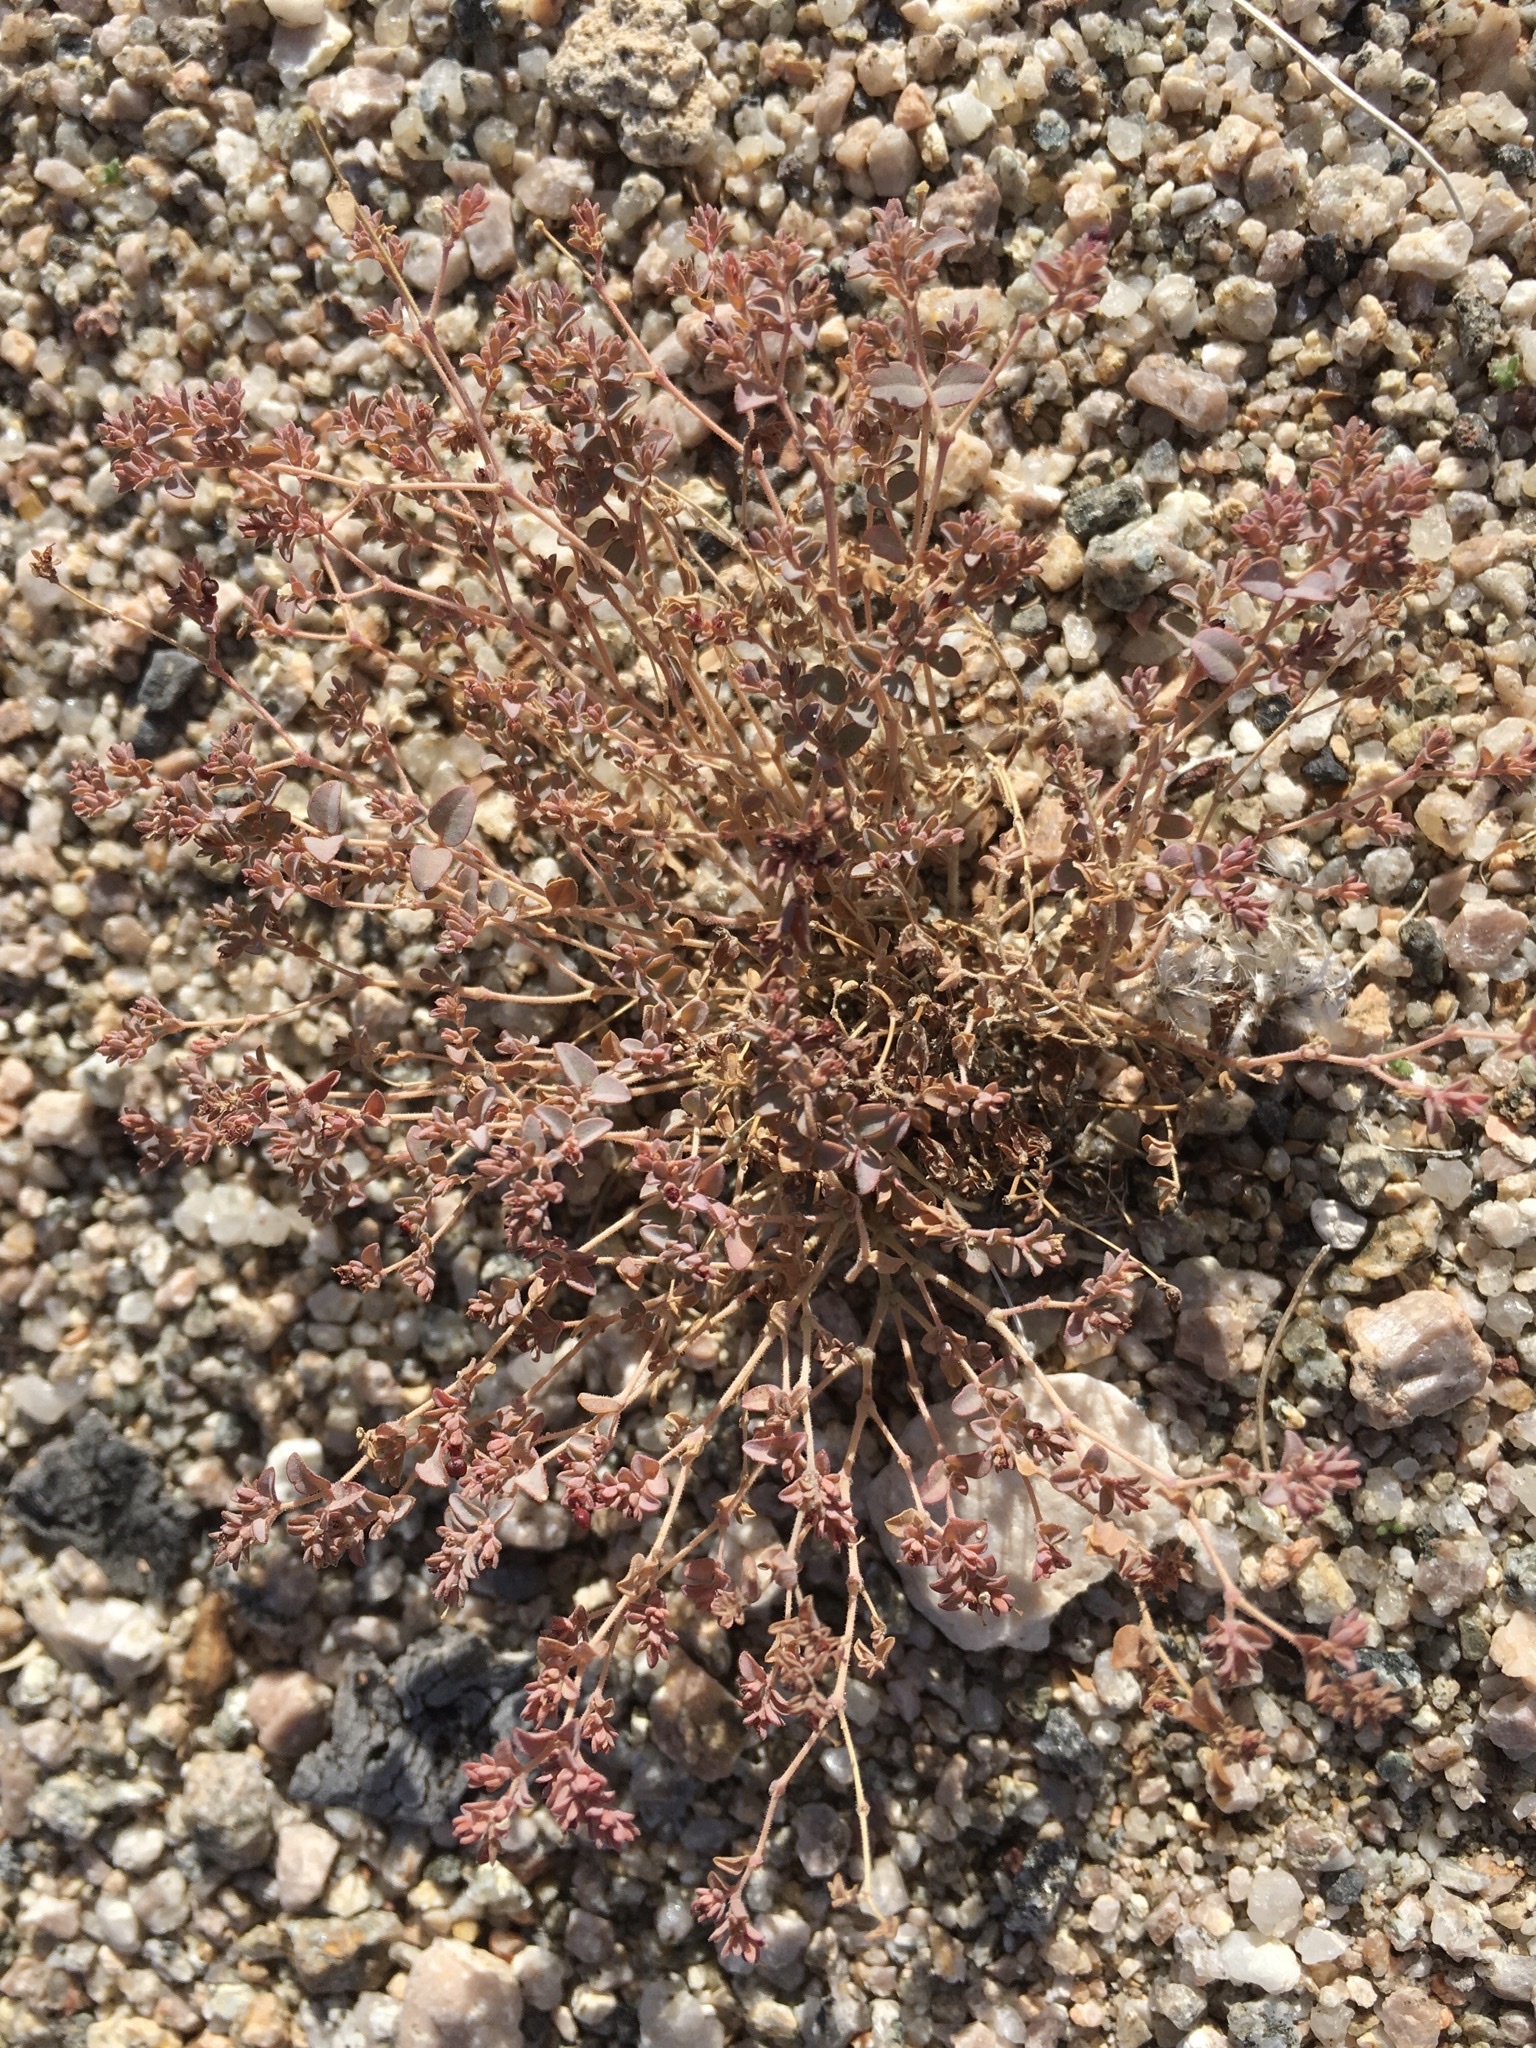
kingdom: Plantae
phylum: Tracheophyta
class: Magnoliopsida
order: Malpighiales
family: Euphorbiaceae
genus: Euphorbia
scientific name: Euphorbia polycarpa
